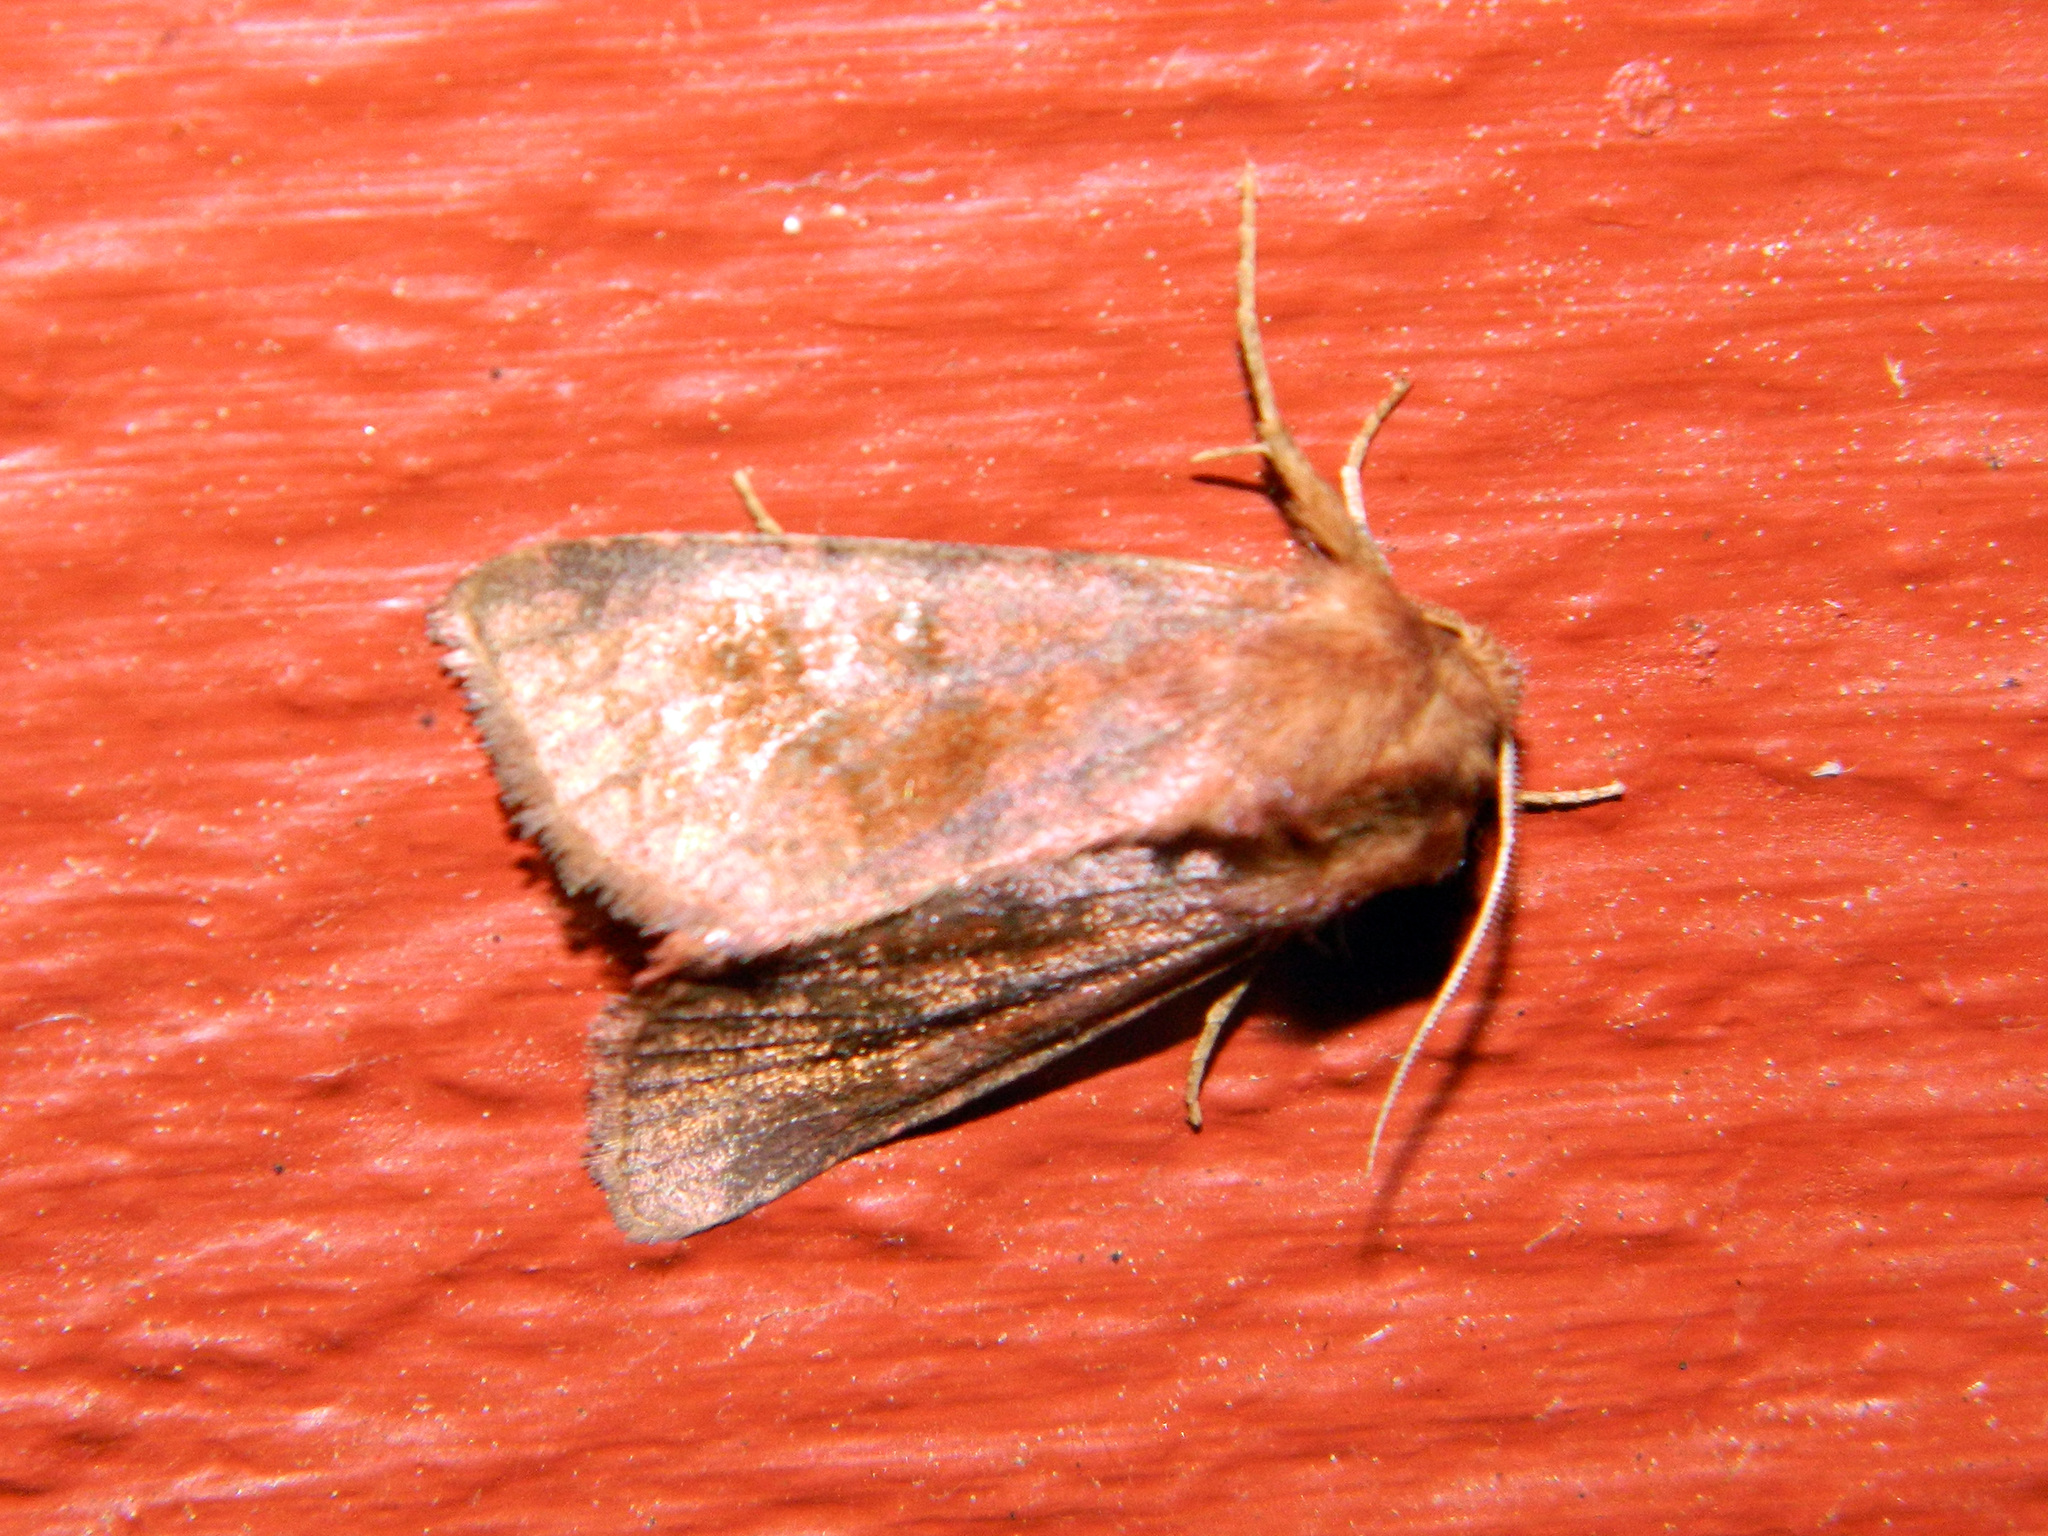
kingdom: Animalia
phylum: Arthropoda
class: Insecta
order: Lepidoptera
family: Noctuidae
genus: Nephelodes
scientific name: Nephelodes minians
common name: Bronzed cutworm
